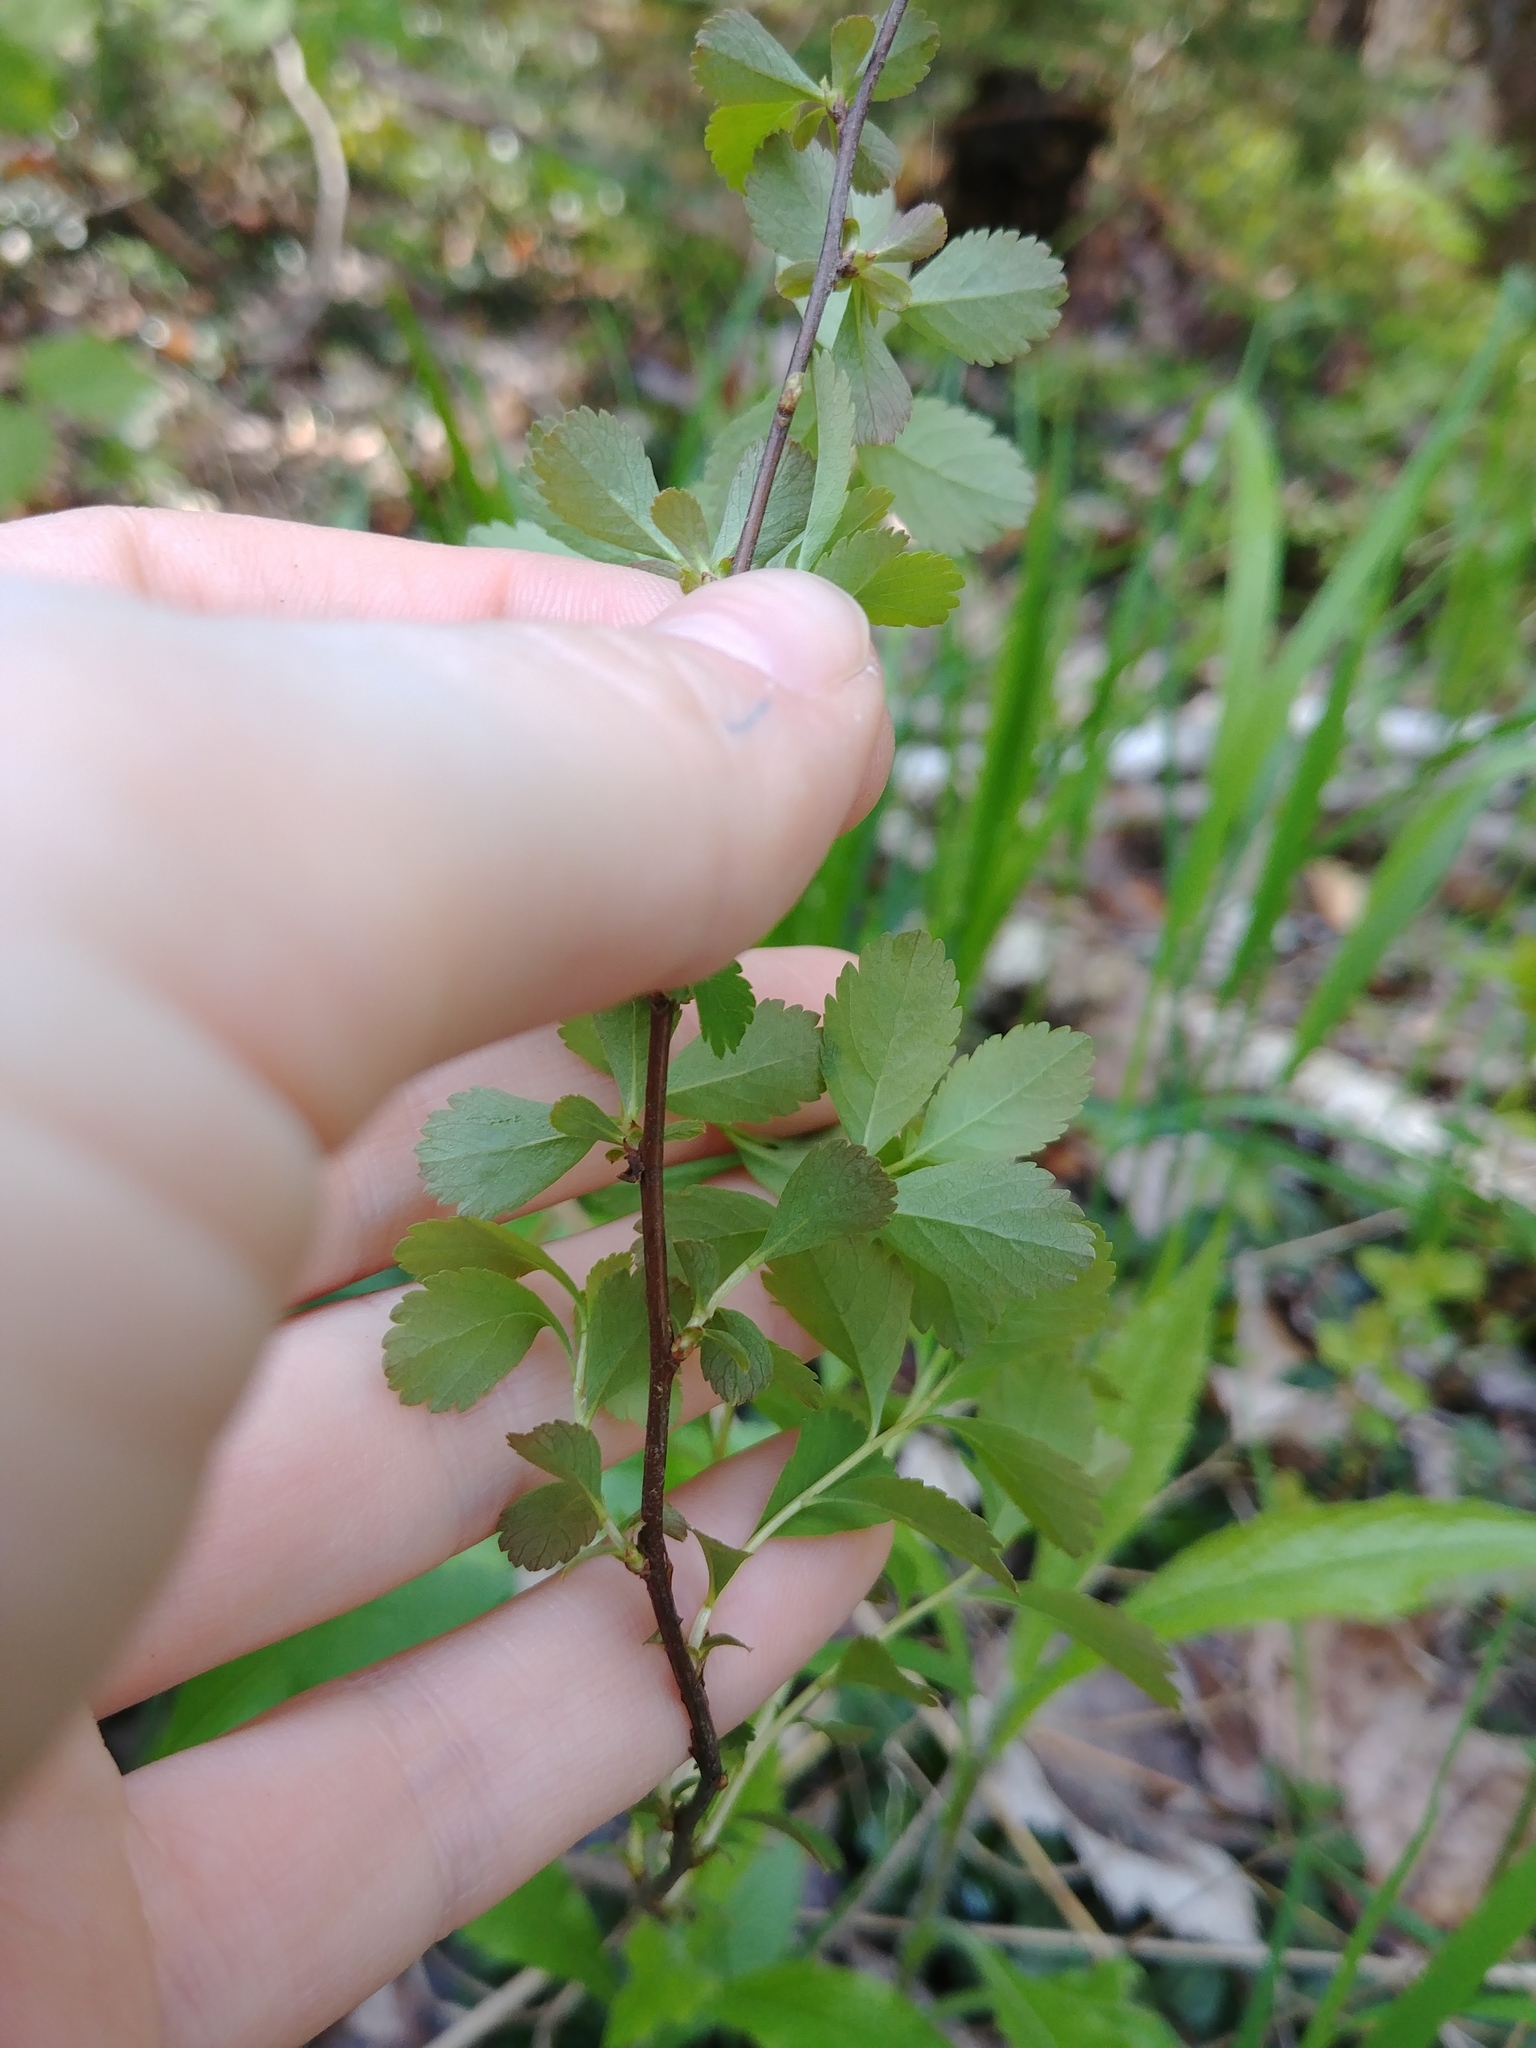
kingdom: Plantae
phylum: Tracheophyta
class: Magnoliopsida
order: Rosales
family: Rosaceae
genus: Spiraea
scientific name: Spiraea alba
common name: Pale bridewort
